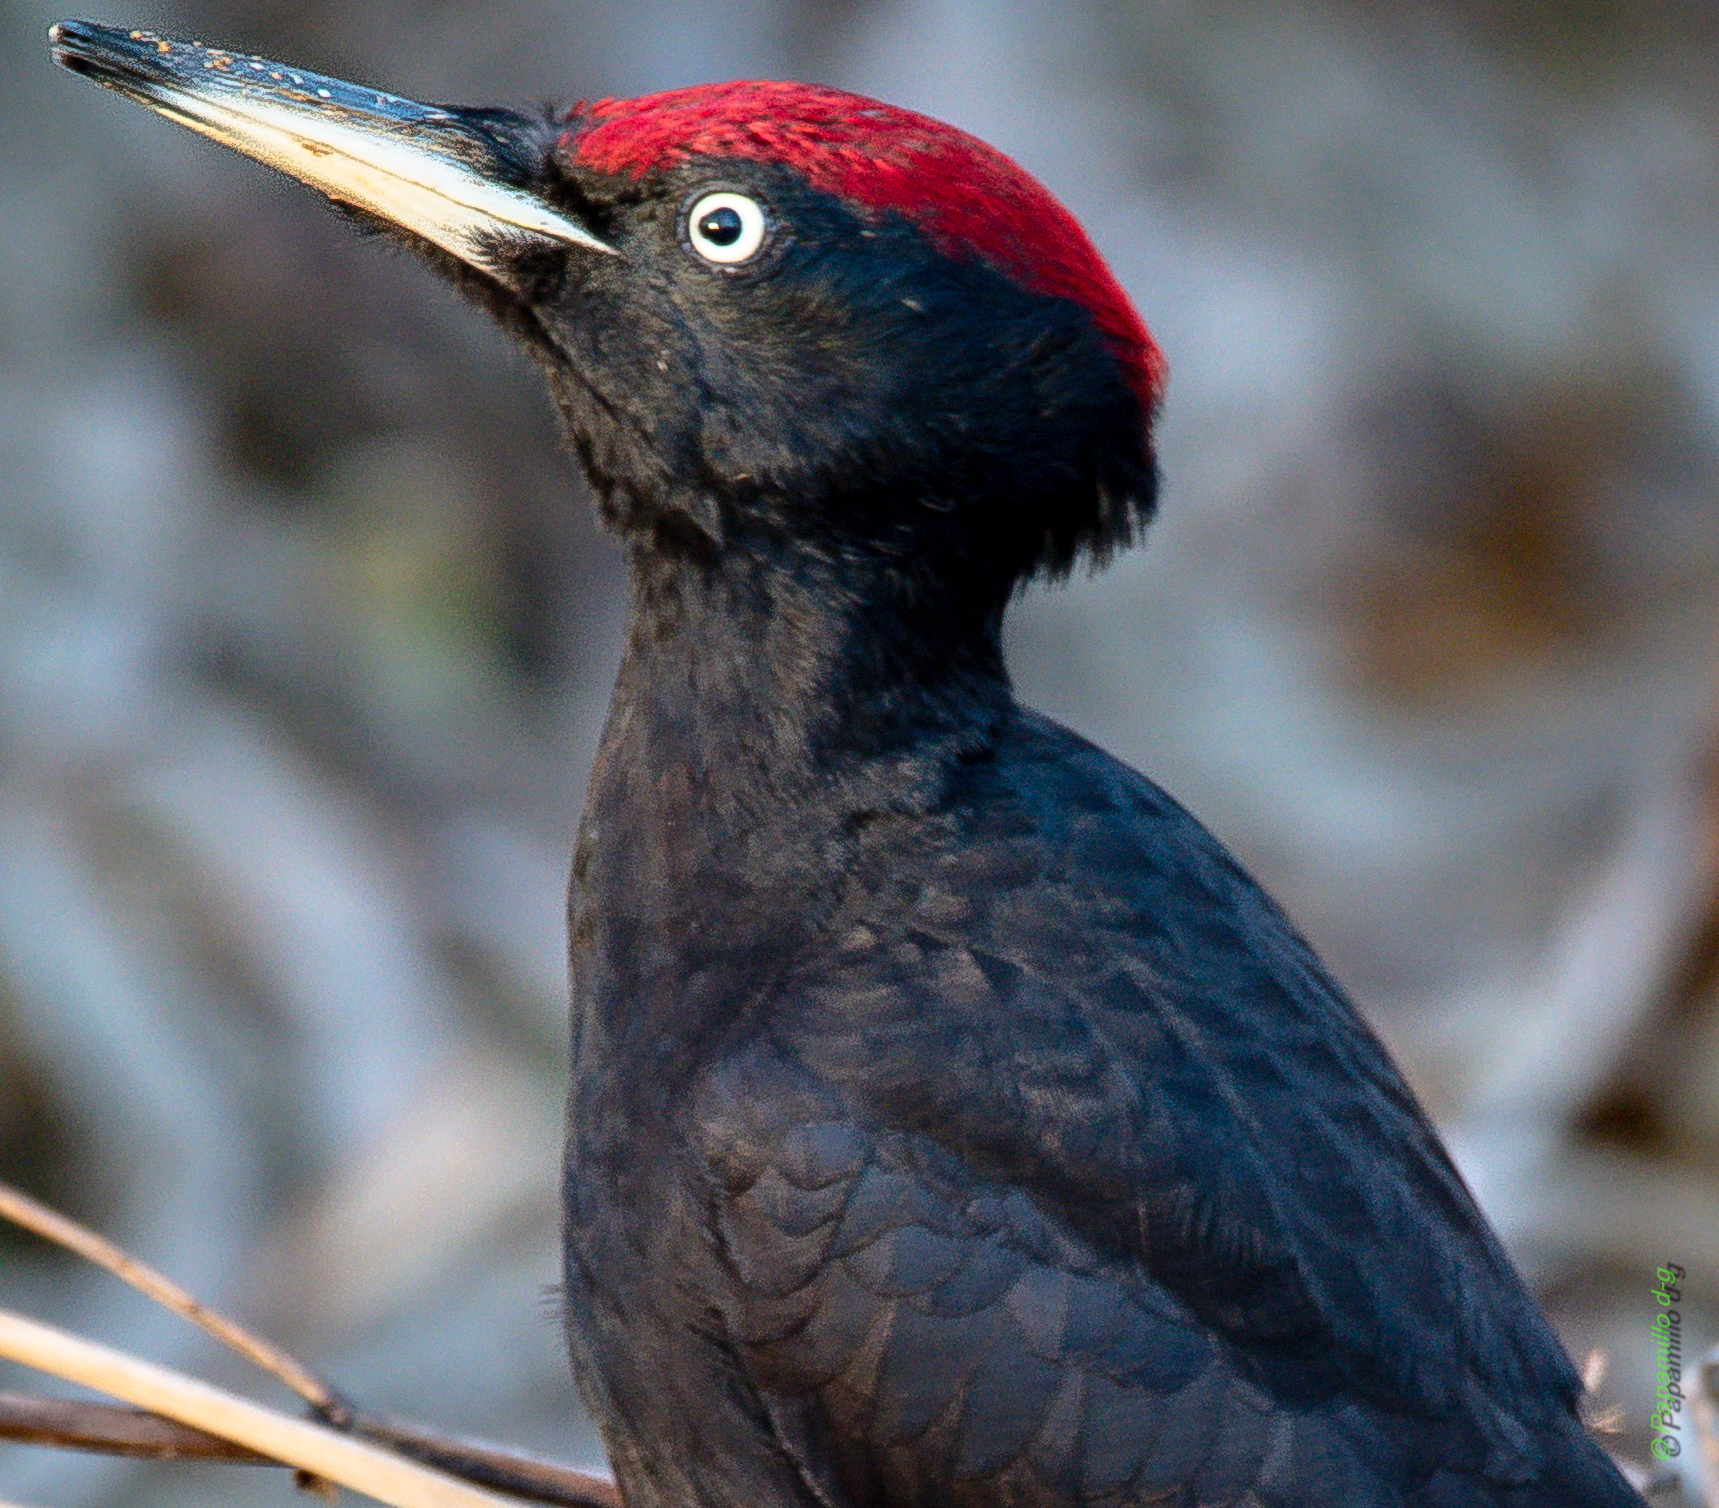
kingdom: Animalia
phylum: Chordata
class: Aves
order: Piciformes
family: Picidae
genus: Dryocopus
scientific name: Dryocopus martius
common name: Black woodpecker
